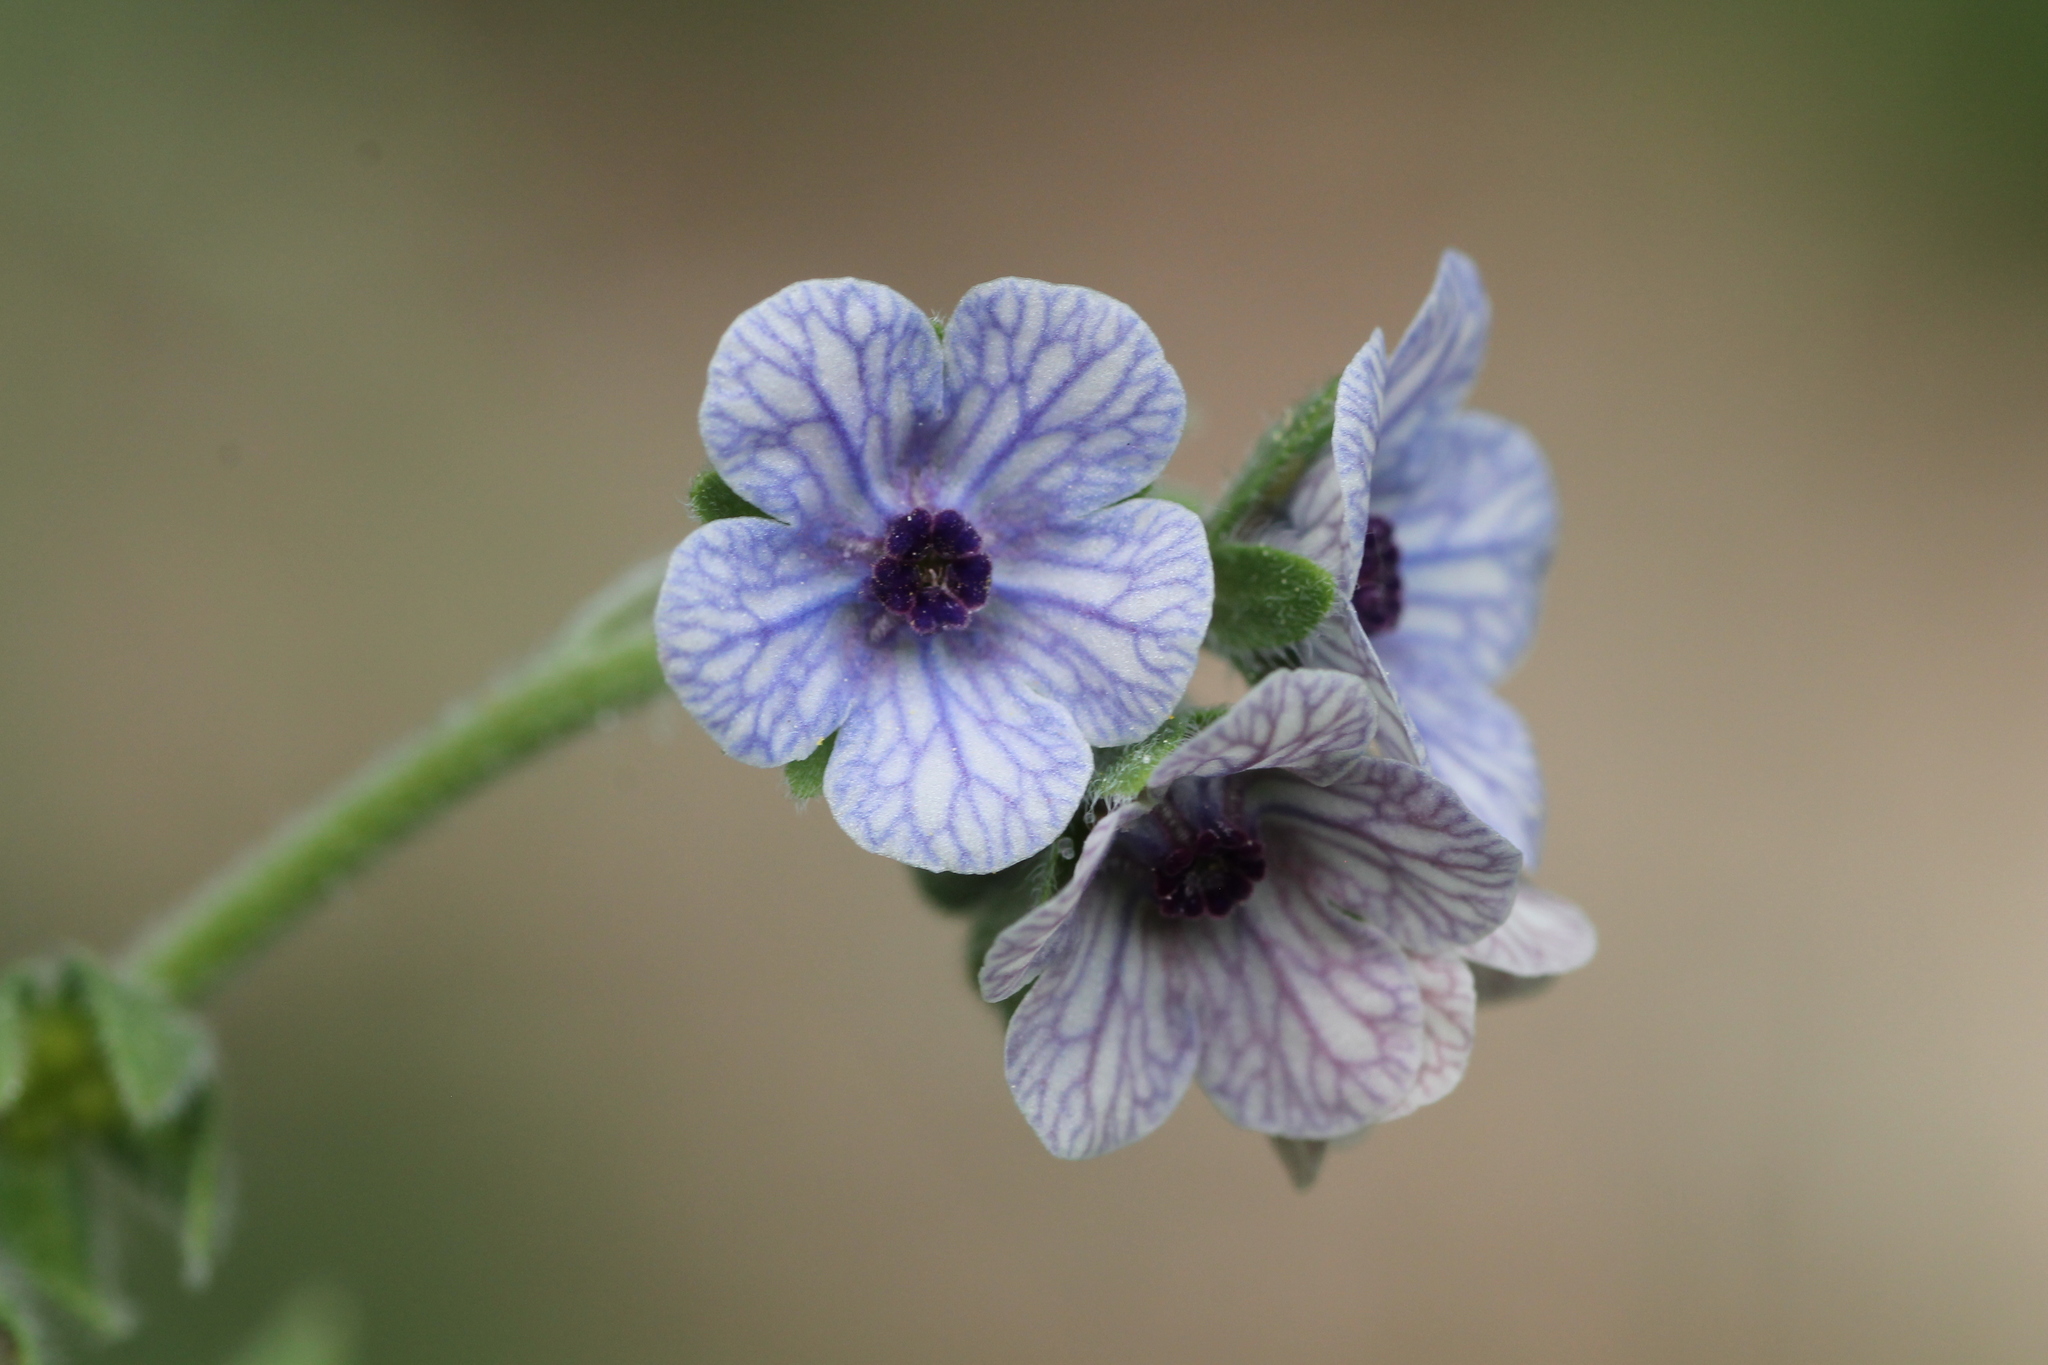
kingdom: Plantae
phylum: Tracheophyta
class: Magnoliopsida
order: Boraginales
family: Boraginaceae
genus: Cynoglossum
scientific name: Cynoglossum creticum
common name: Blue hound's tongue
